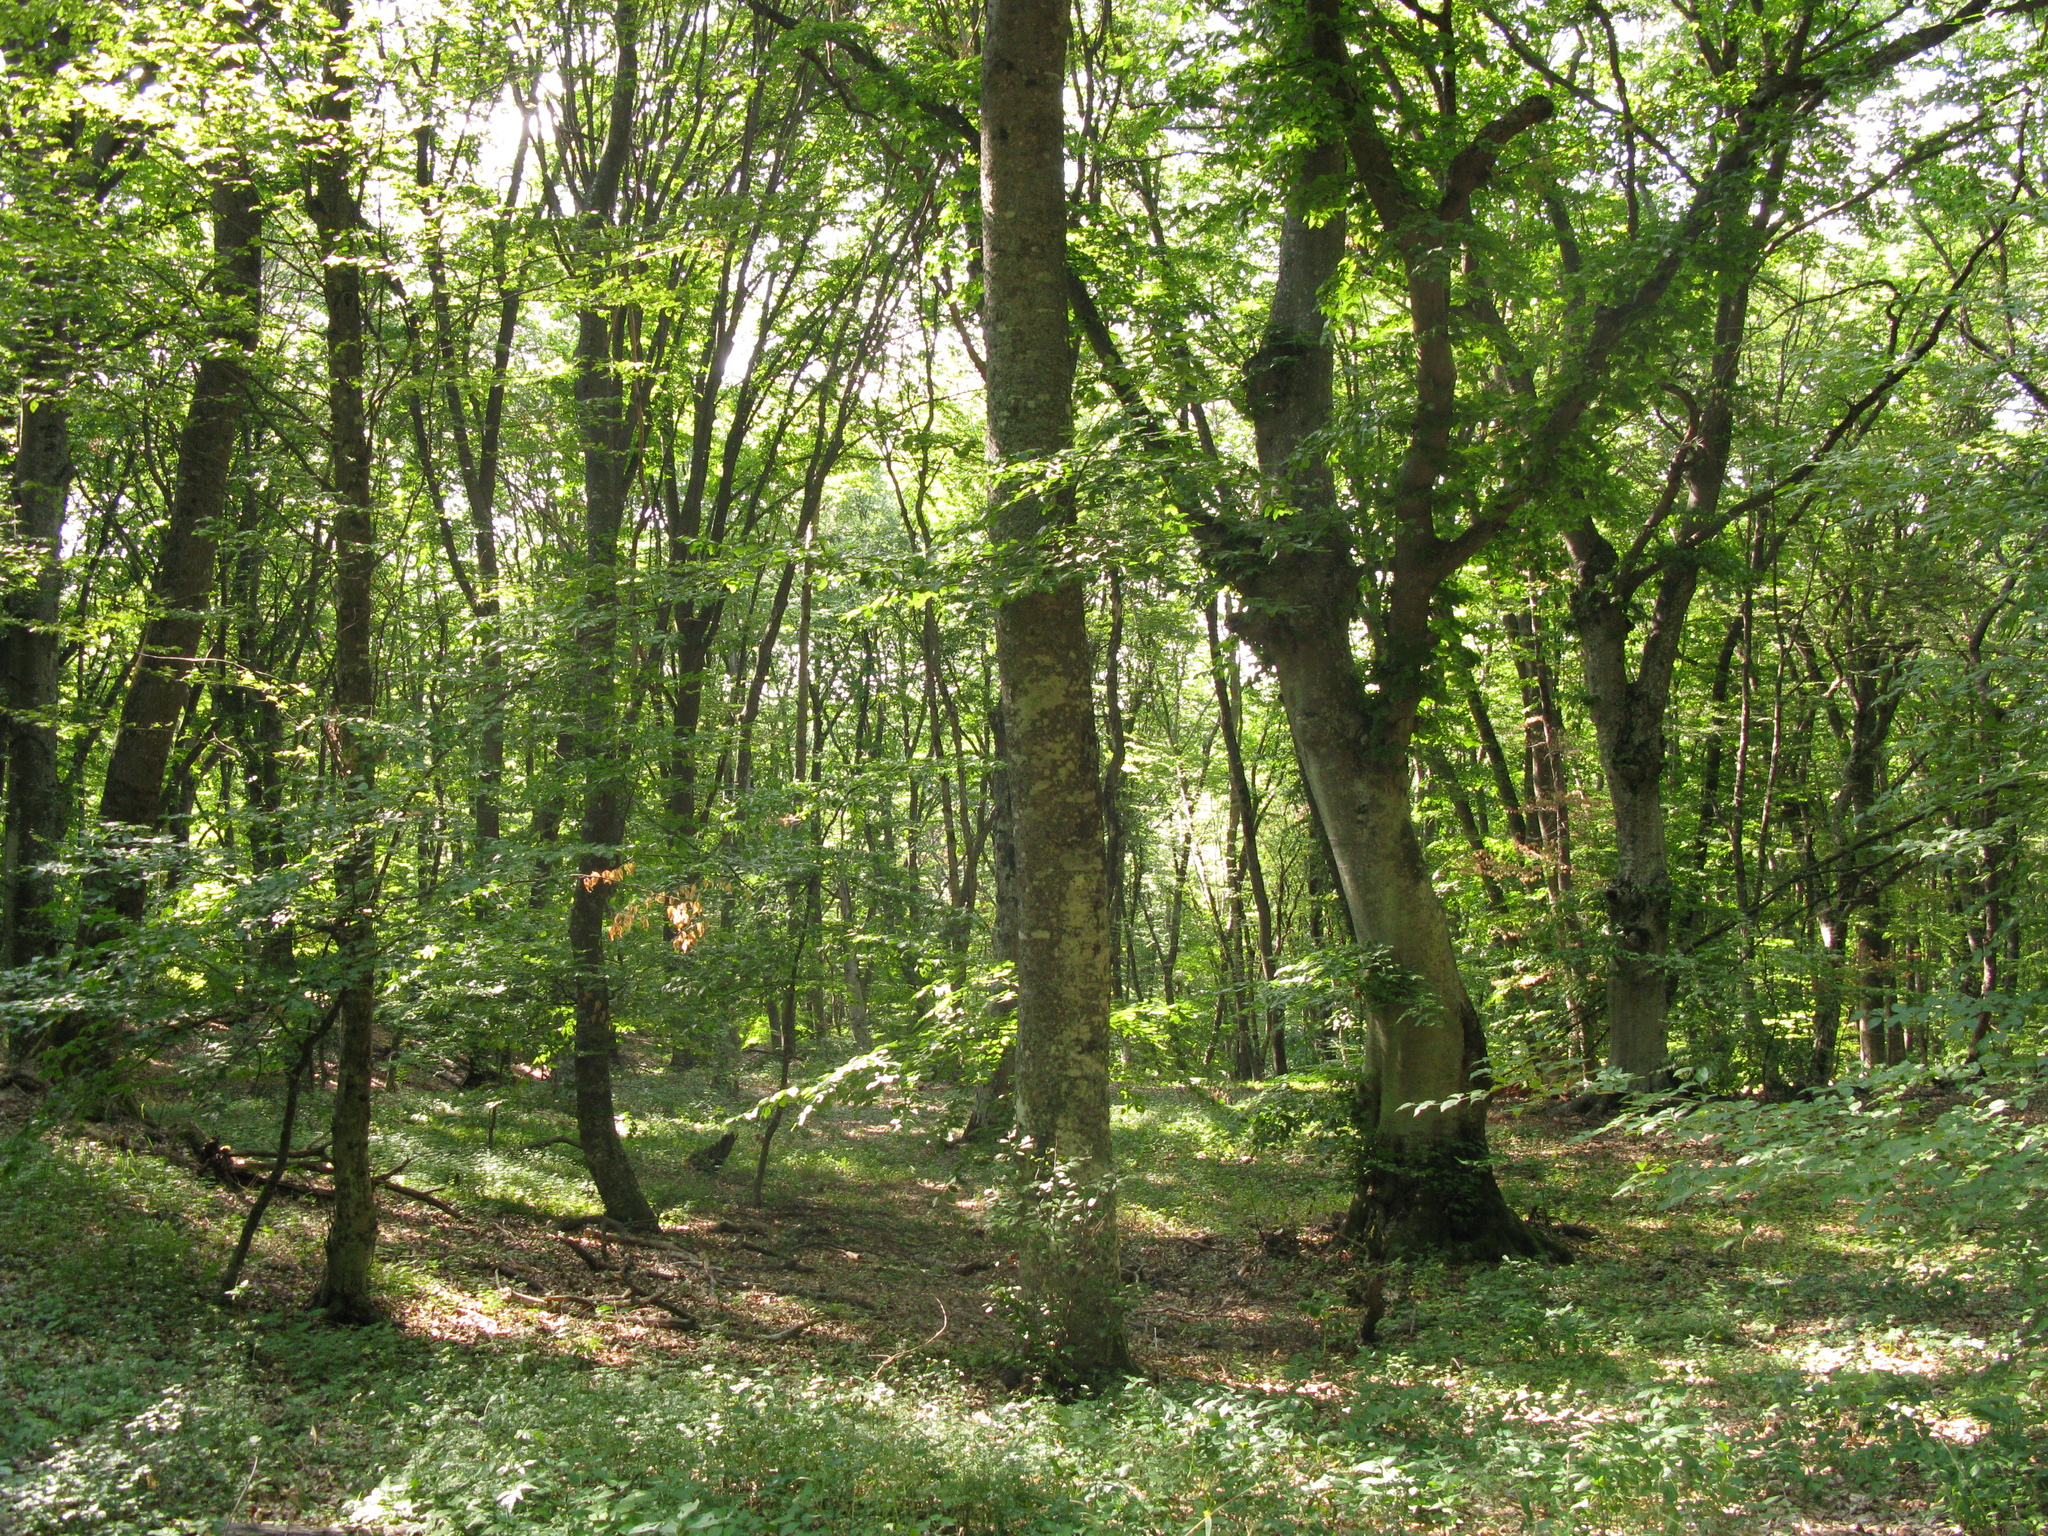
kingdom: Plantae
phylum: Tracheophyta
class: Magnoliopsida
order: Fagales
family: Fagaceae
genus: Fagus
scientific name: Fagus taurica
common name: Crimean beech
